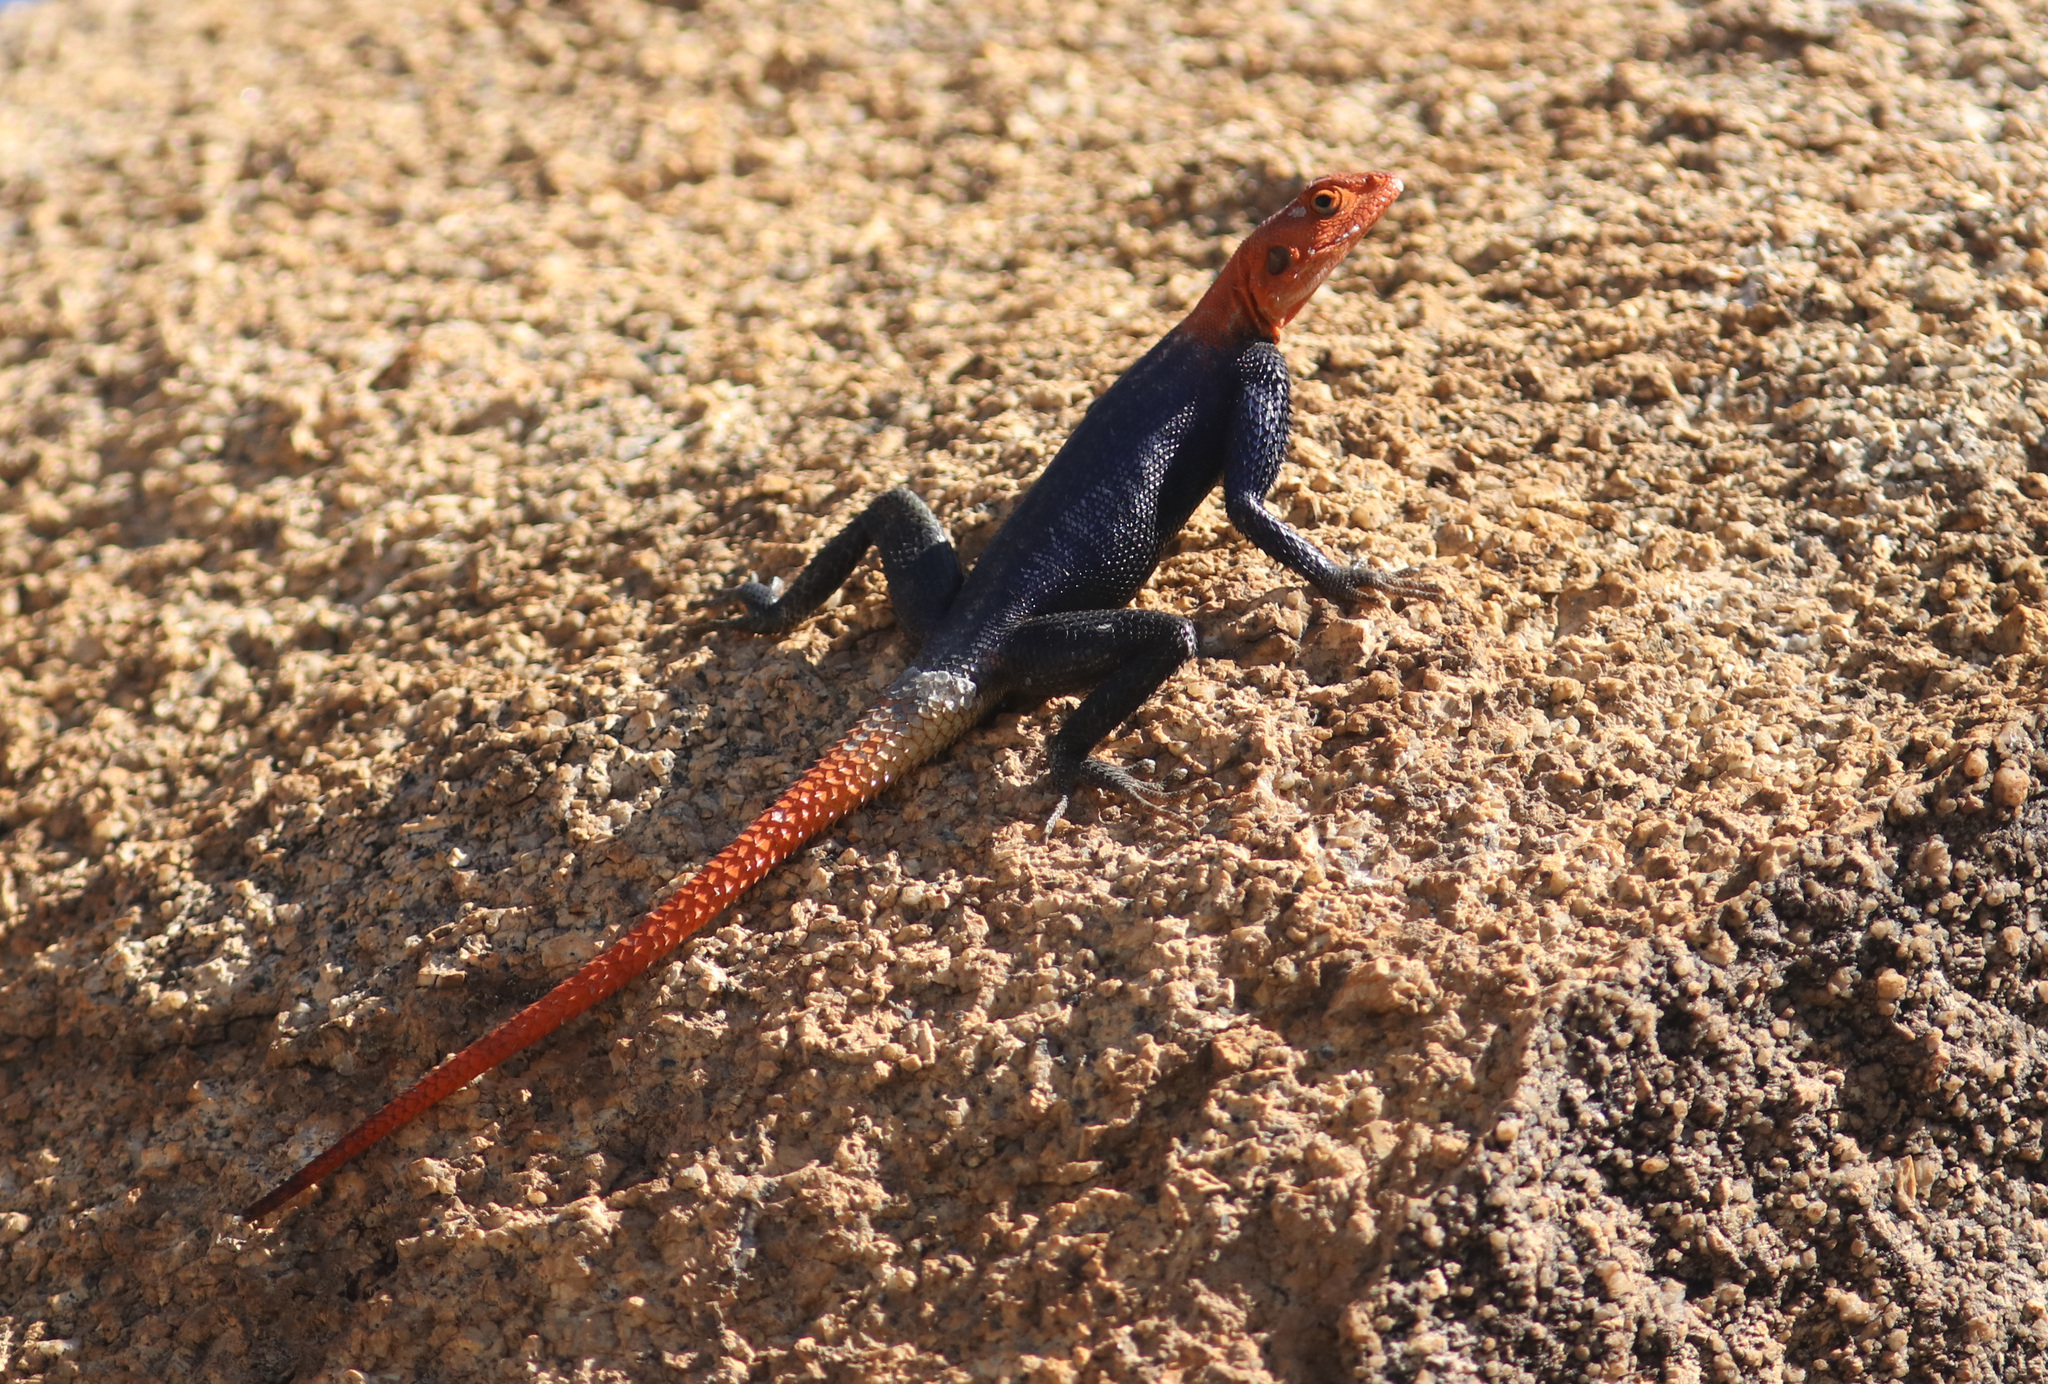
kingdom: Animalia
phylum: Chordata
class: Squamata
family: Agamidae
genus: Agama
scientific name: Agama planiceps
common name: Namib rock agama
